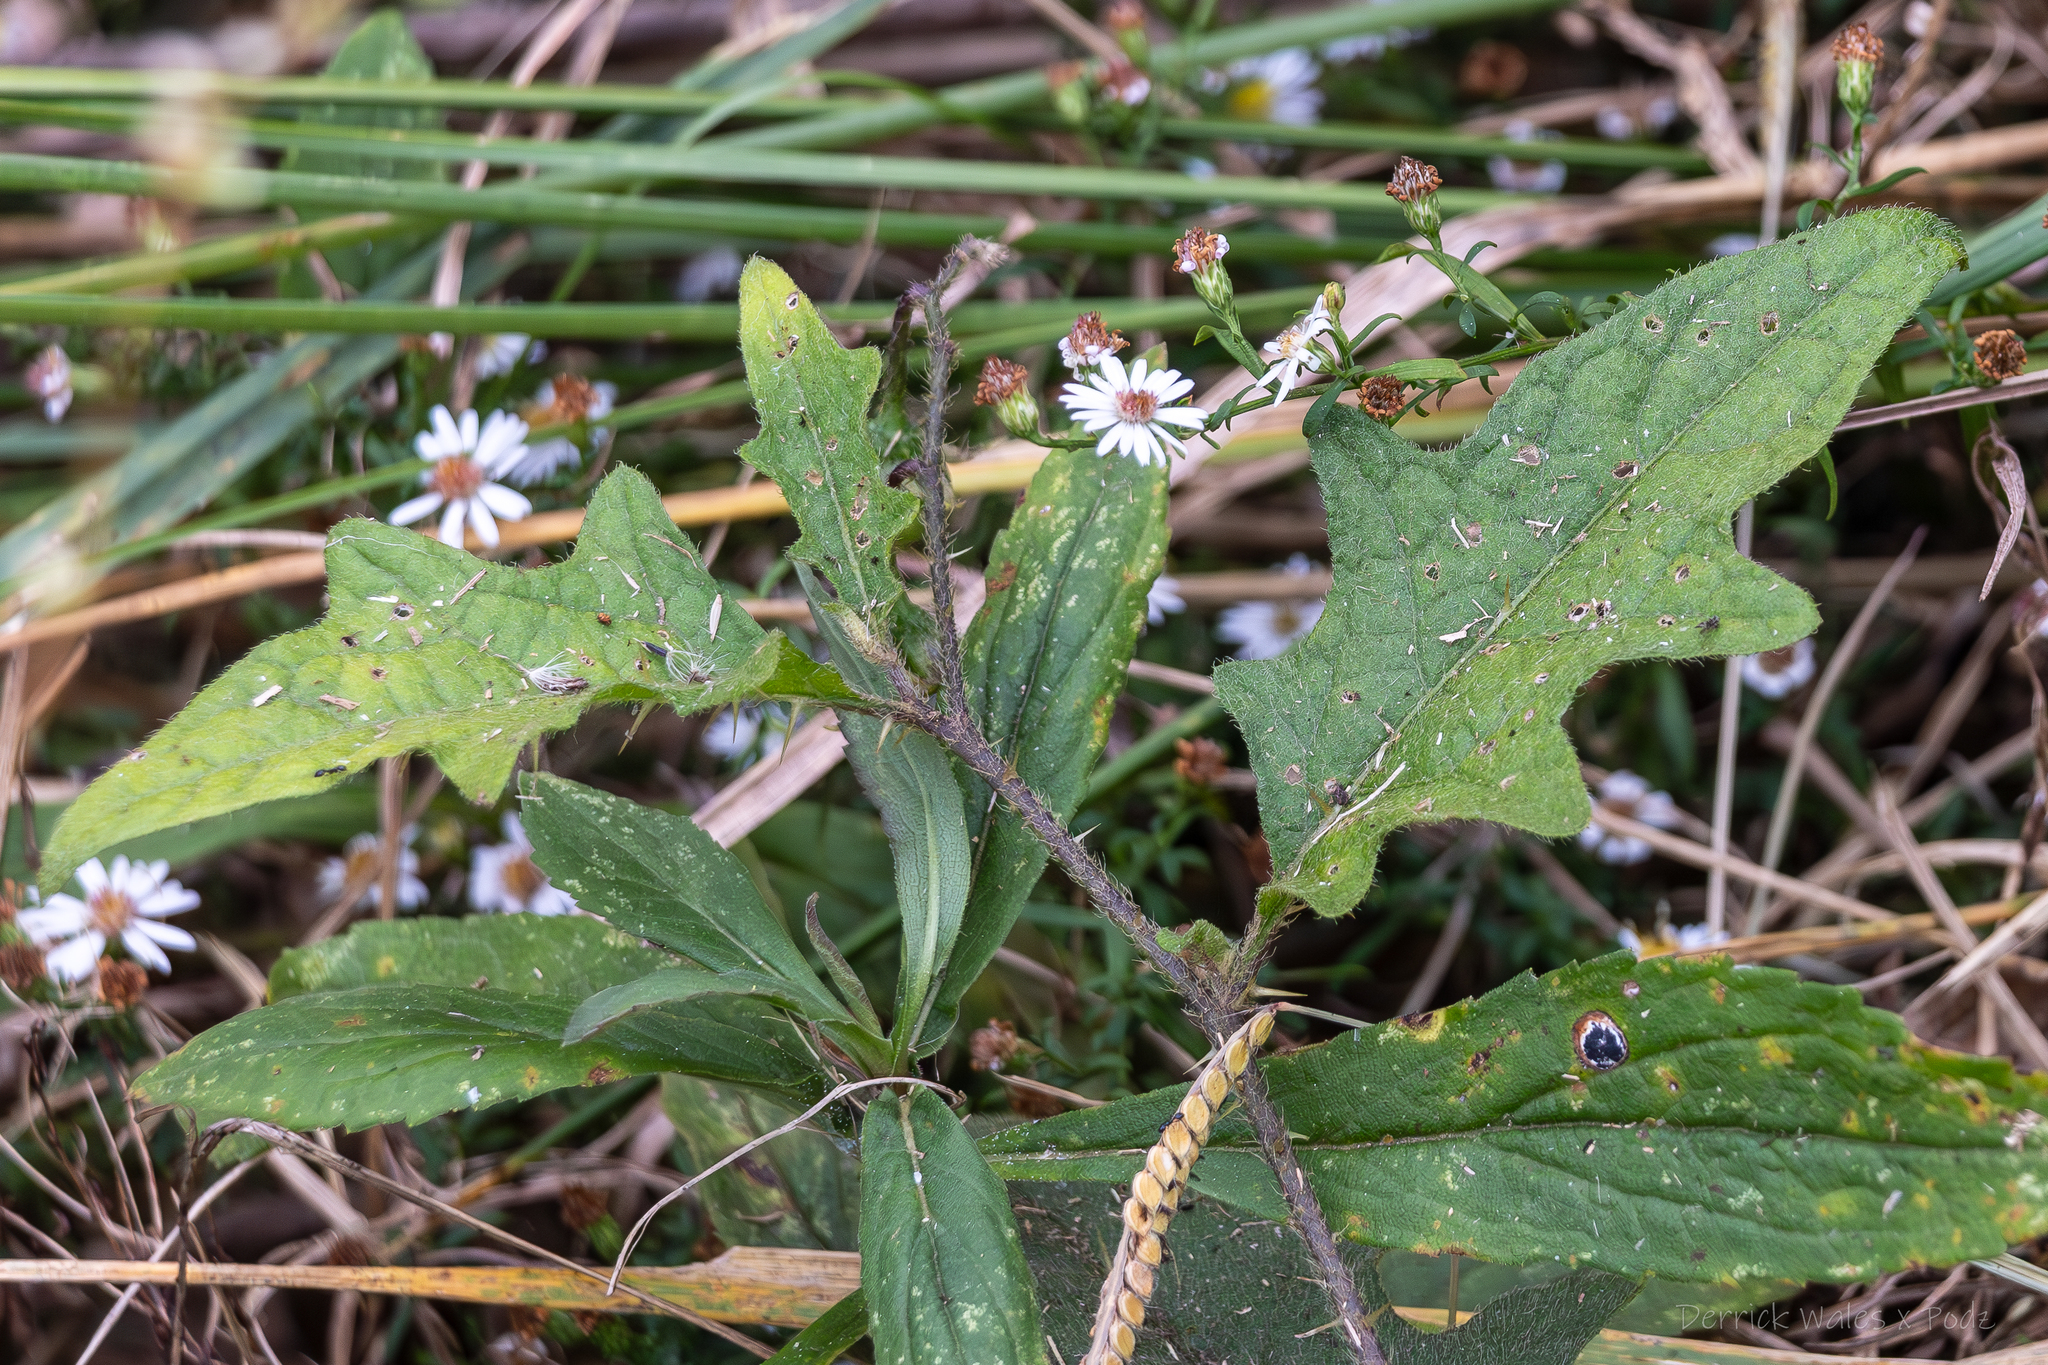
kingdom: Plantae
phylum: Tracheophyta
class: Magnoliopsida
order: Solanales
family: Solanaceae
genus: Solanum
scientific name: Solanum carolinense
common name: Horse-nettle
